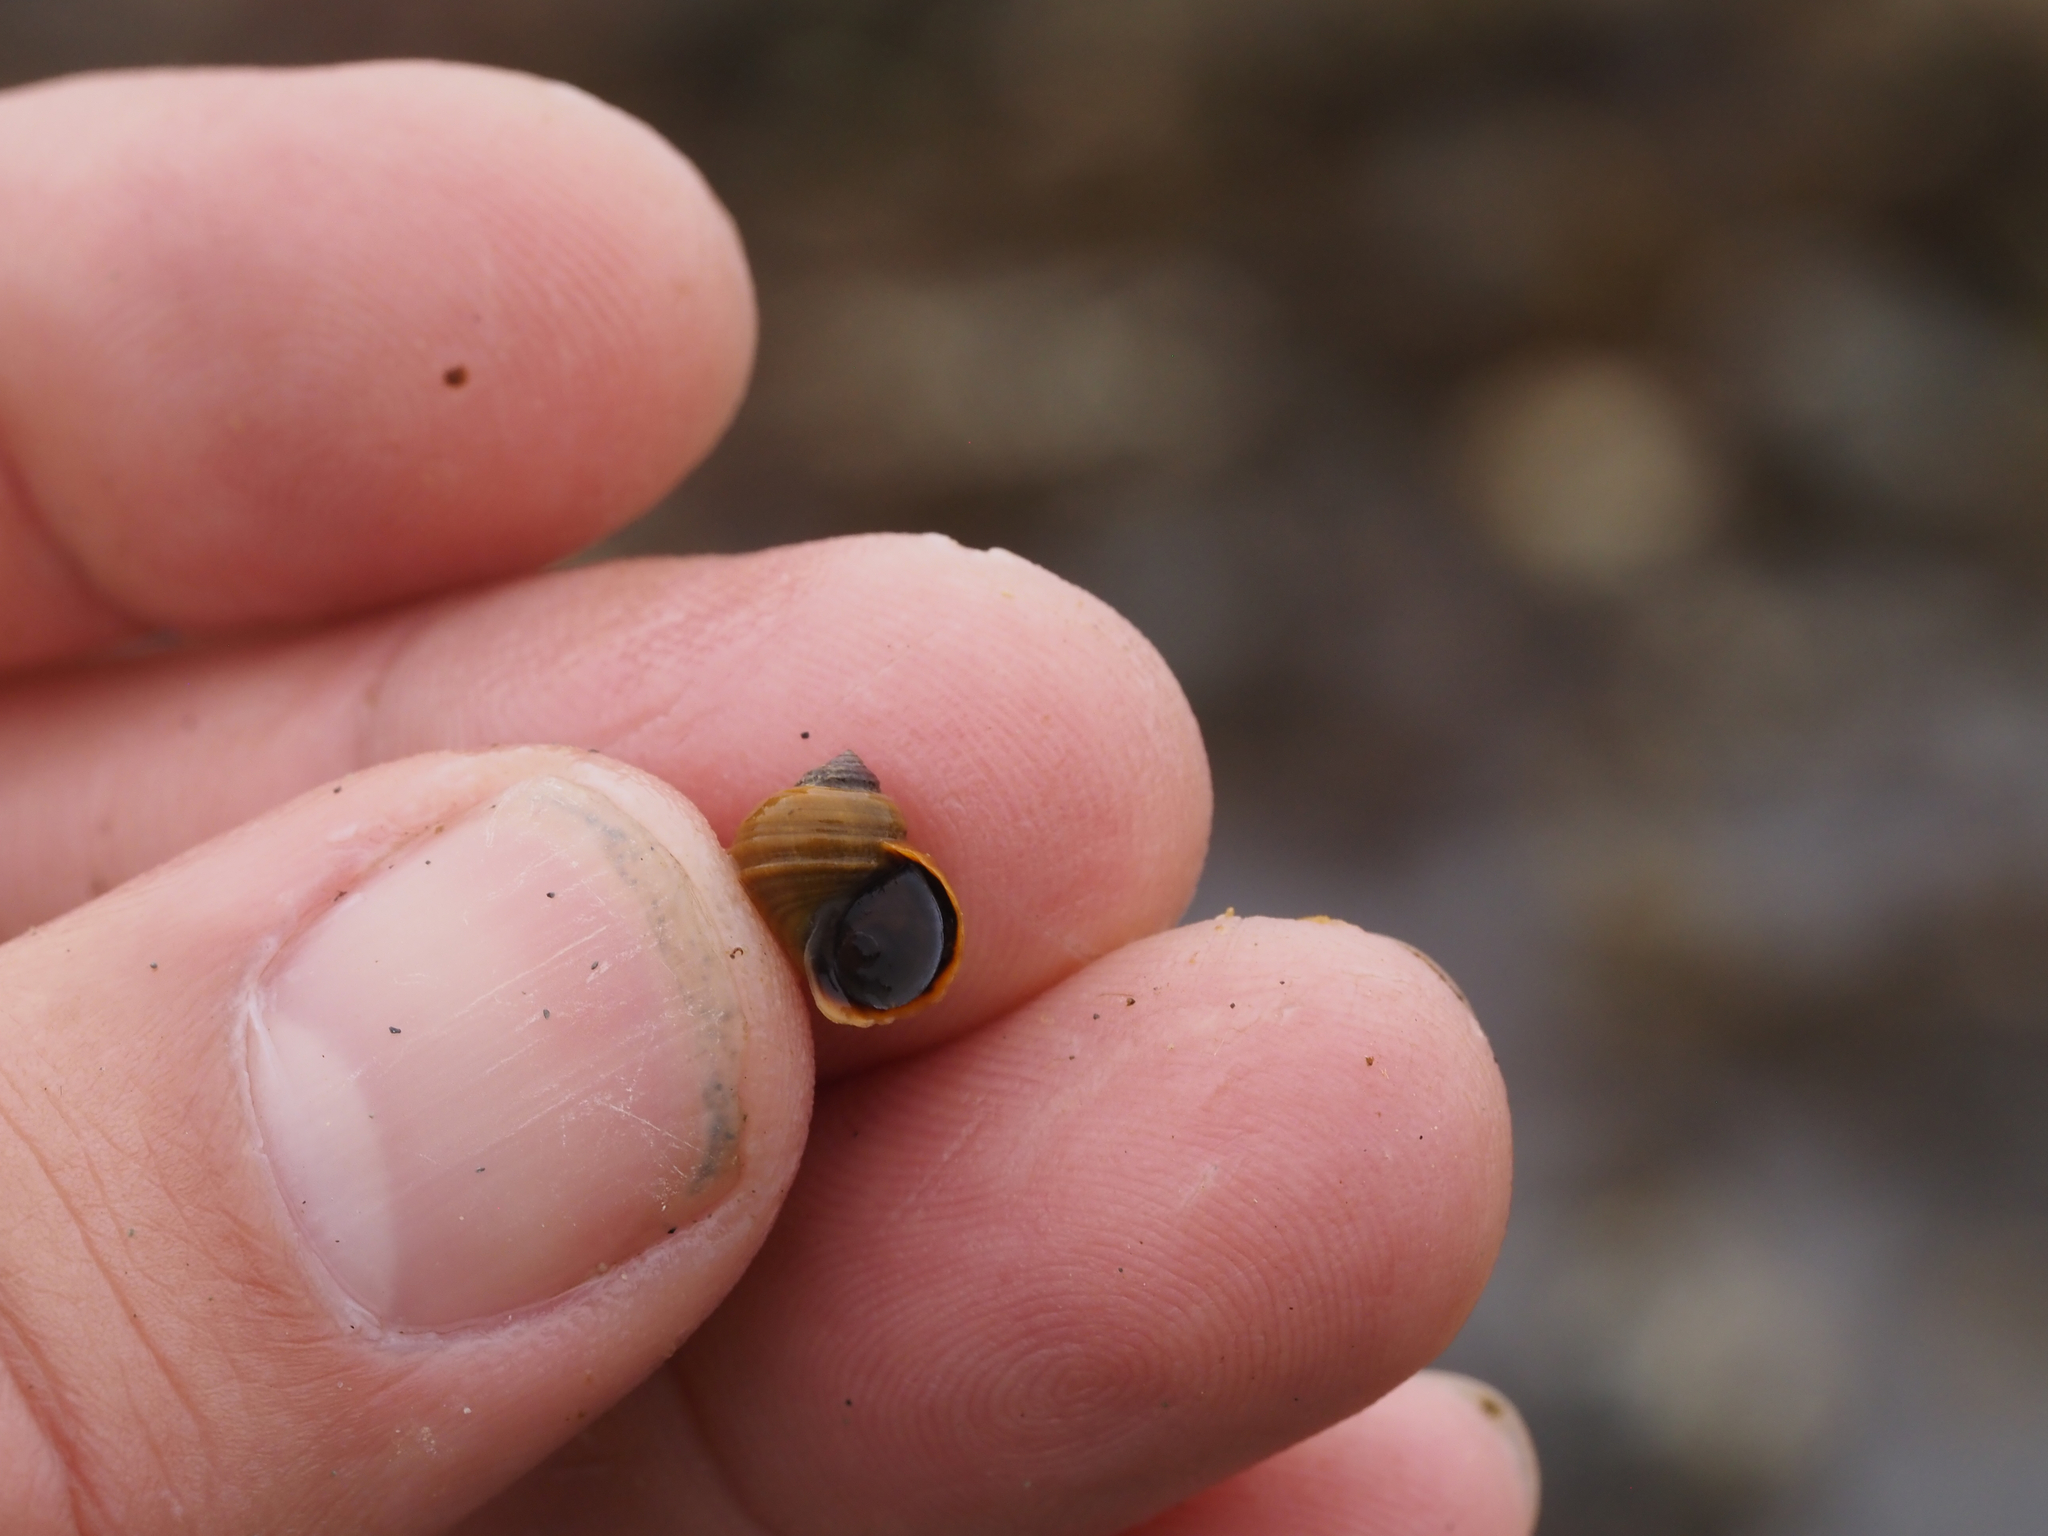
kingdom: Animalia
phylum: Mollusca
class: Gastropoda
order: Littorinimorpha
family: Littorinidae
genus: Littorina
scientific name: Littorina sitkana
